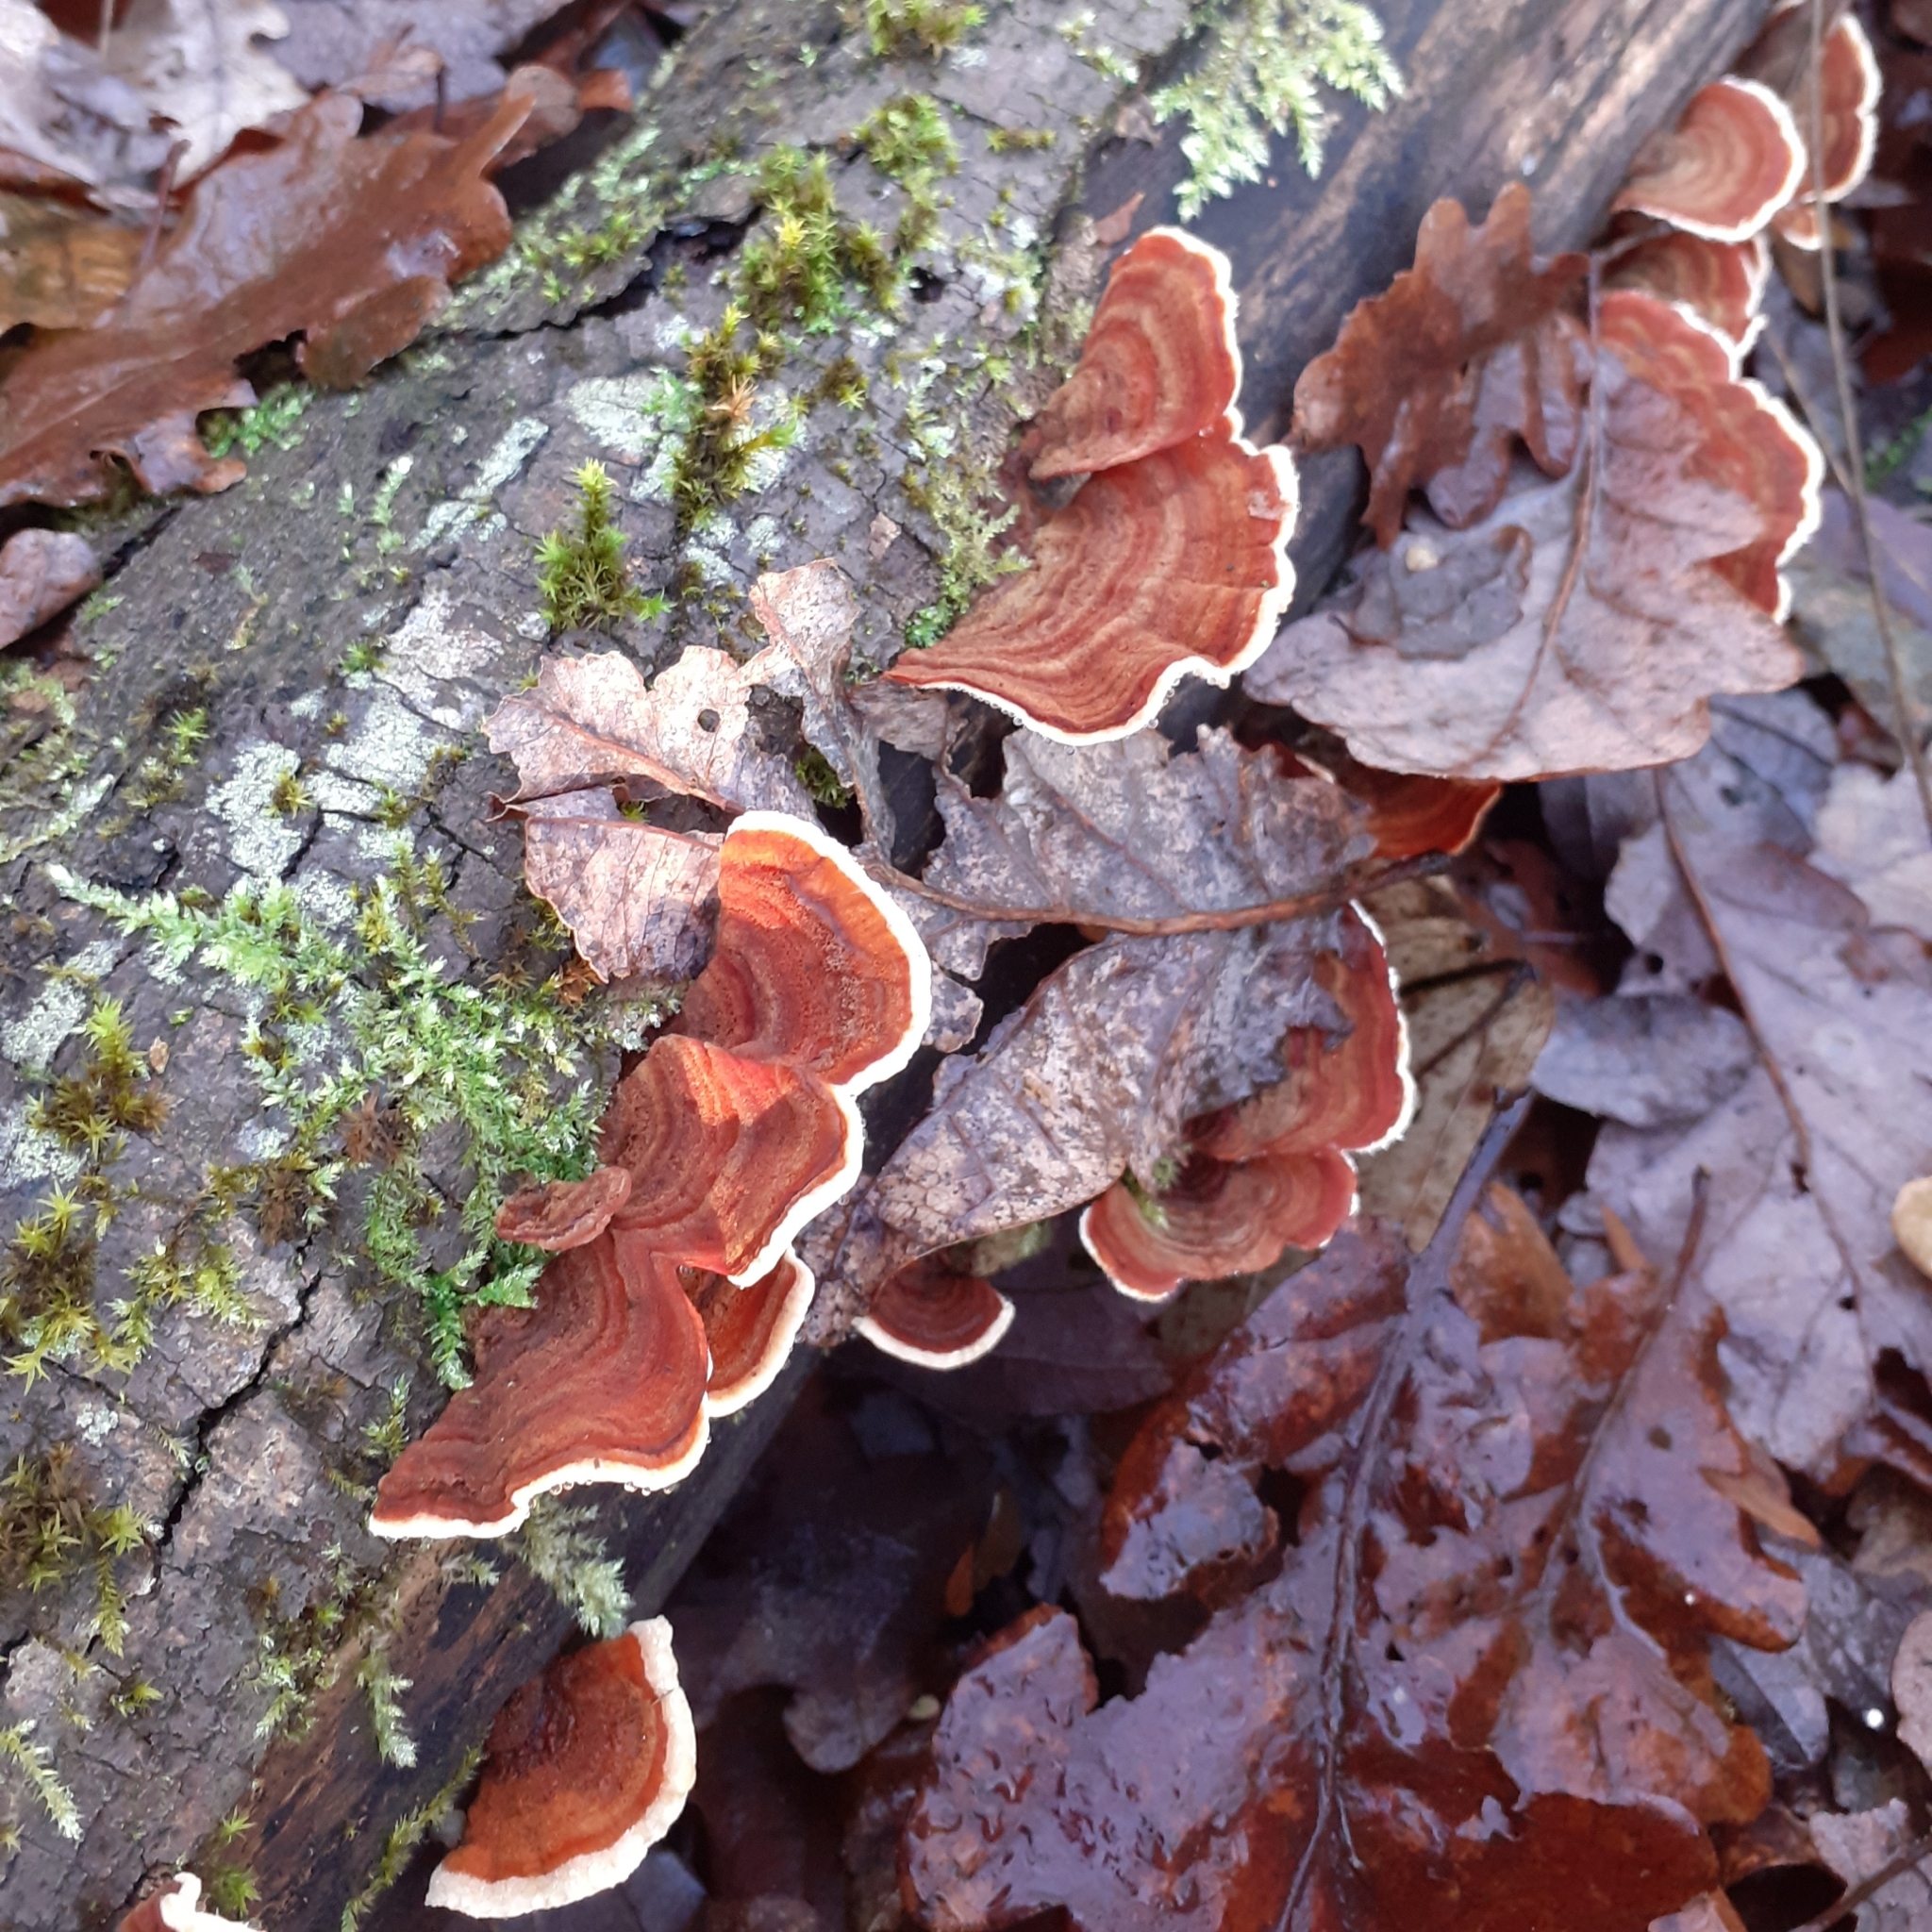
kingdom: Fungi
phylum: Basidiomycota
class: Agaricomycetes
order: Russulales
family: Stereaceae
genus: Stereum
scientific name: Stereum subtomentosum
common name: Yellowing curtain crust
